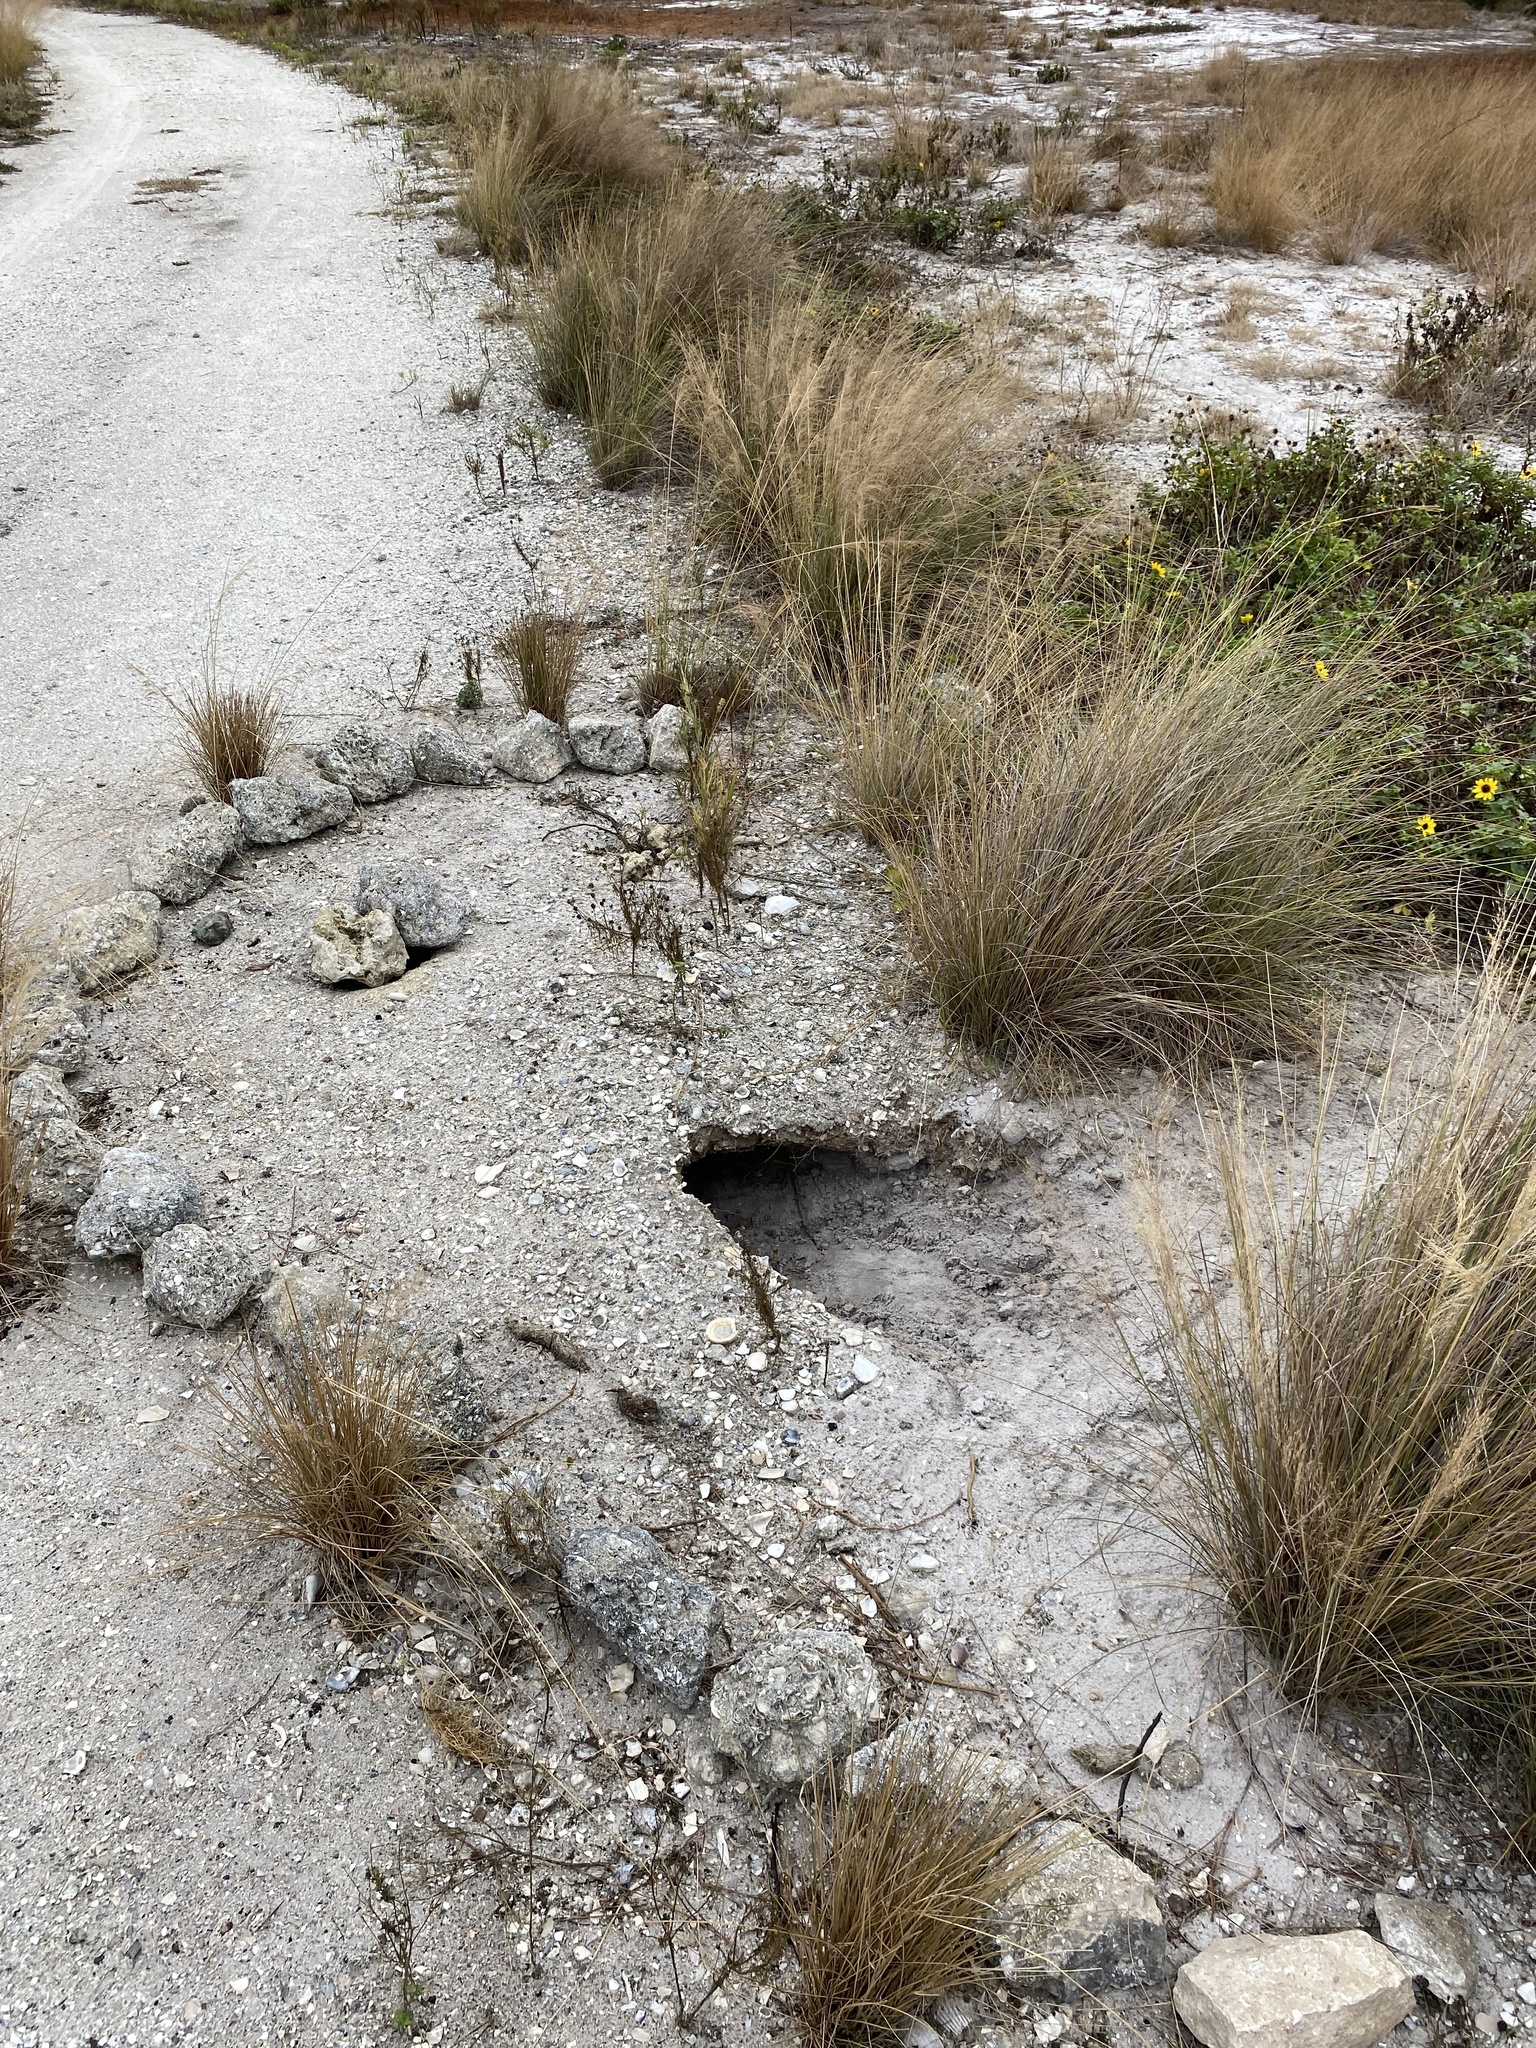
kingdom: Animalia
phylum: Chordata
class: Testudines
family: Testudinidae
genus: Gopherus
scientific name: Gopherus polyphemus
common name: Florida gopher tortoise
